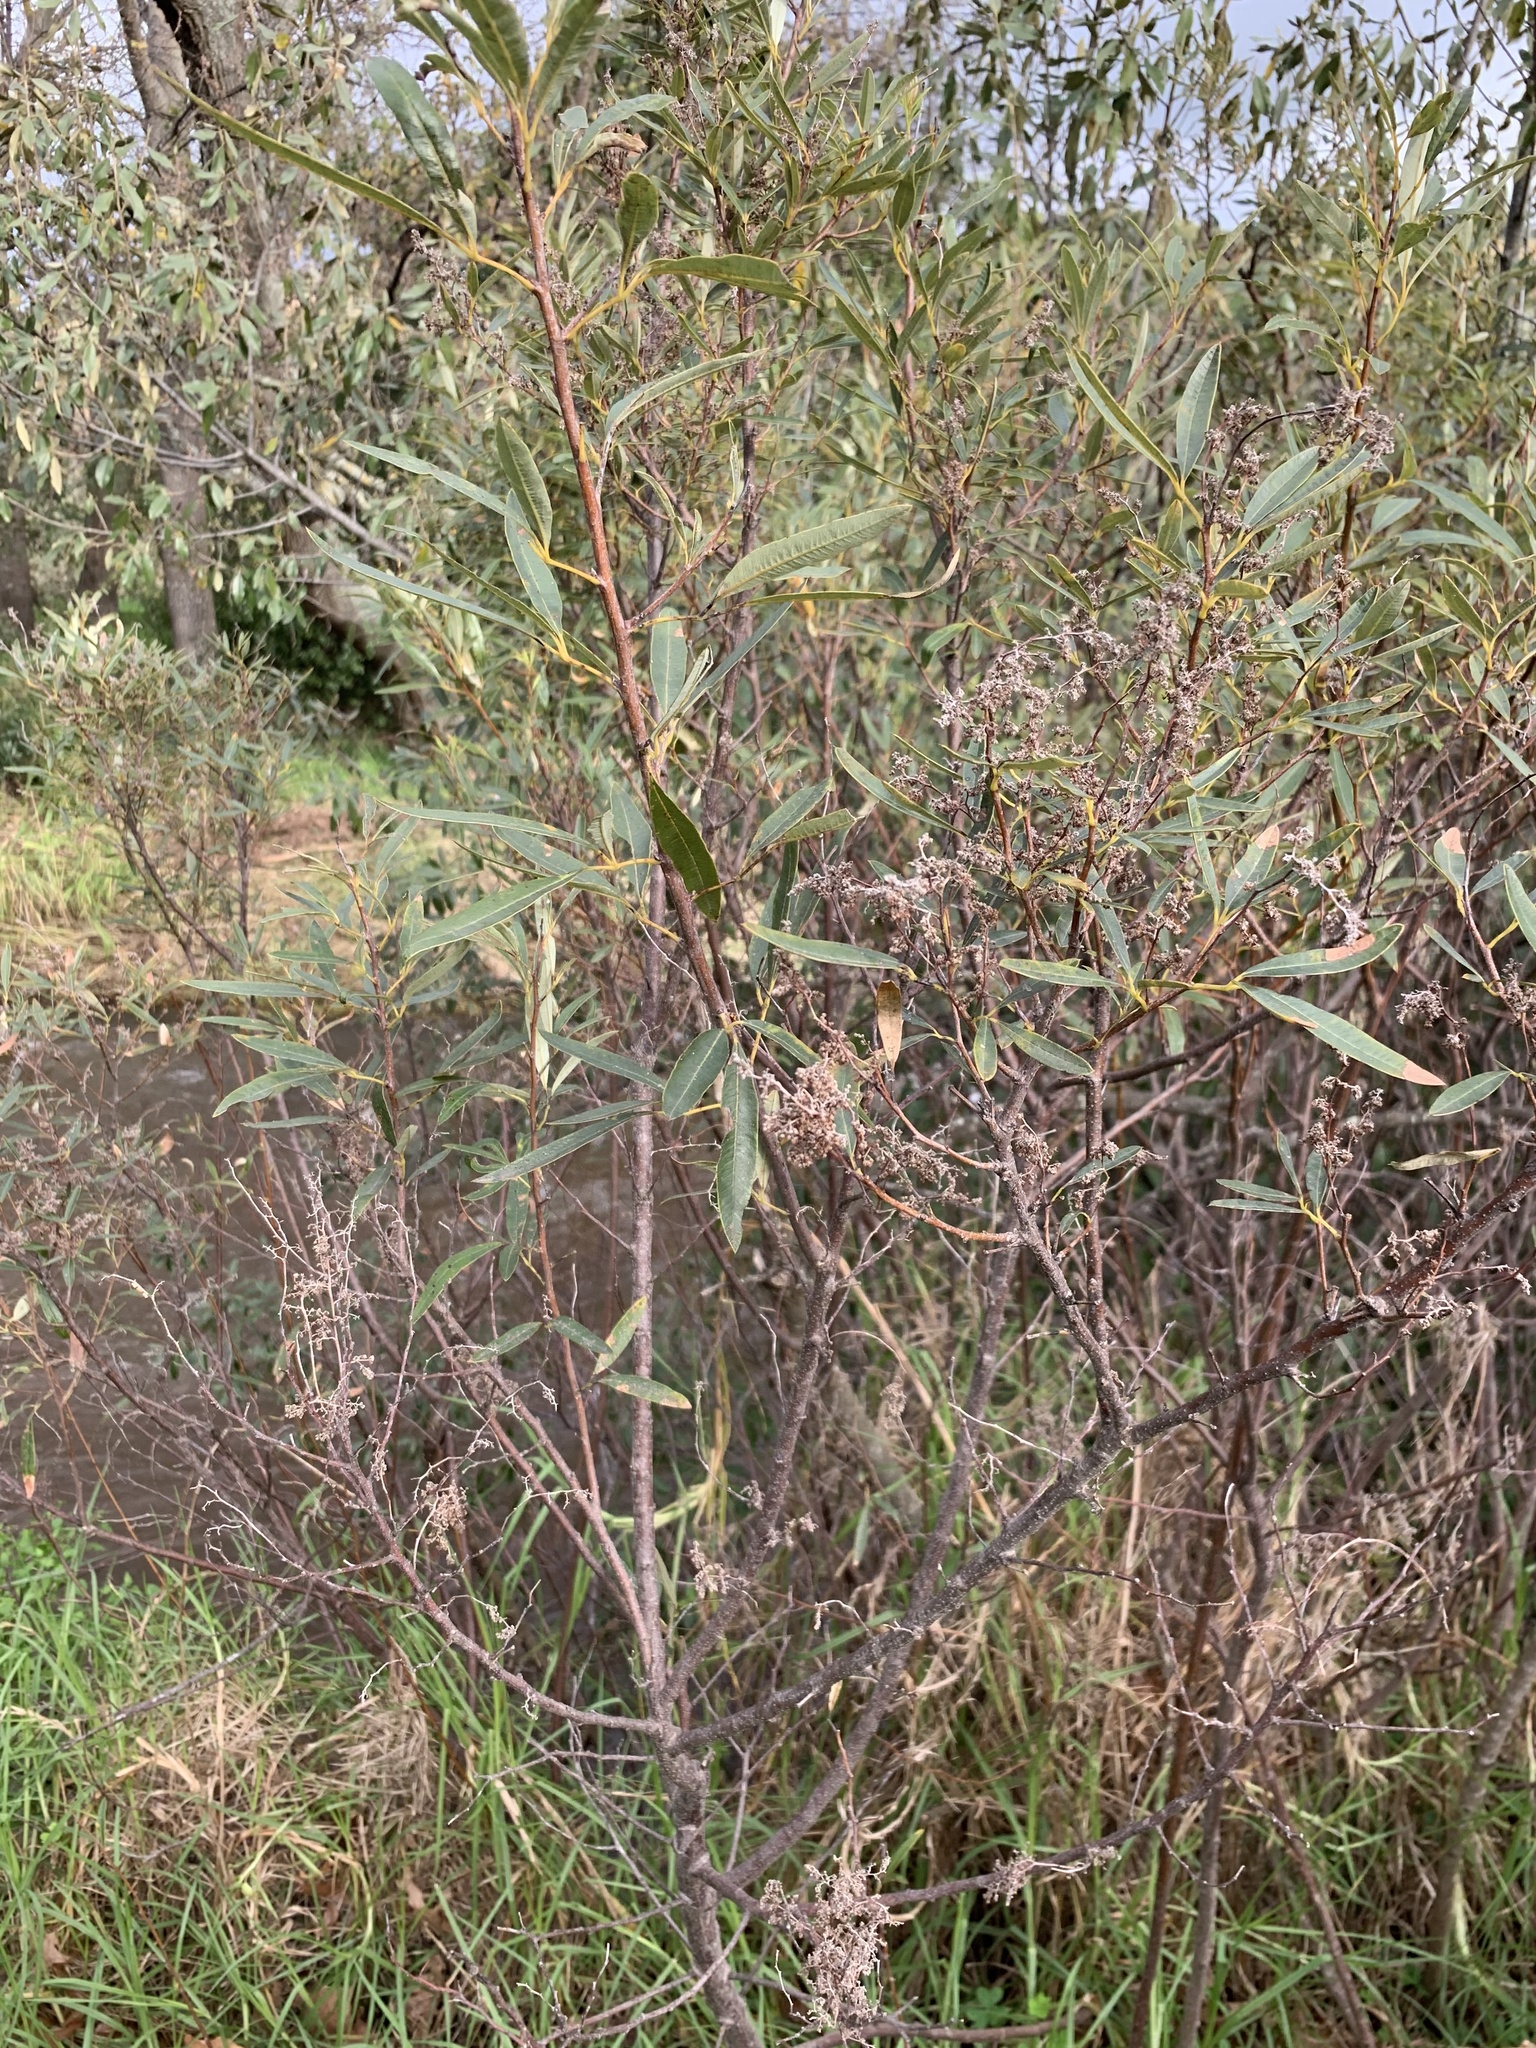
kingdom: Plantae
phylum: Tracheophyta
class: Magnoliopsida
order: Sapindales
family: Anacardiaceae
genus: Searsia
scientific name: Searsia angustifolia
